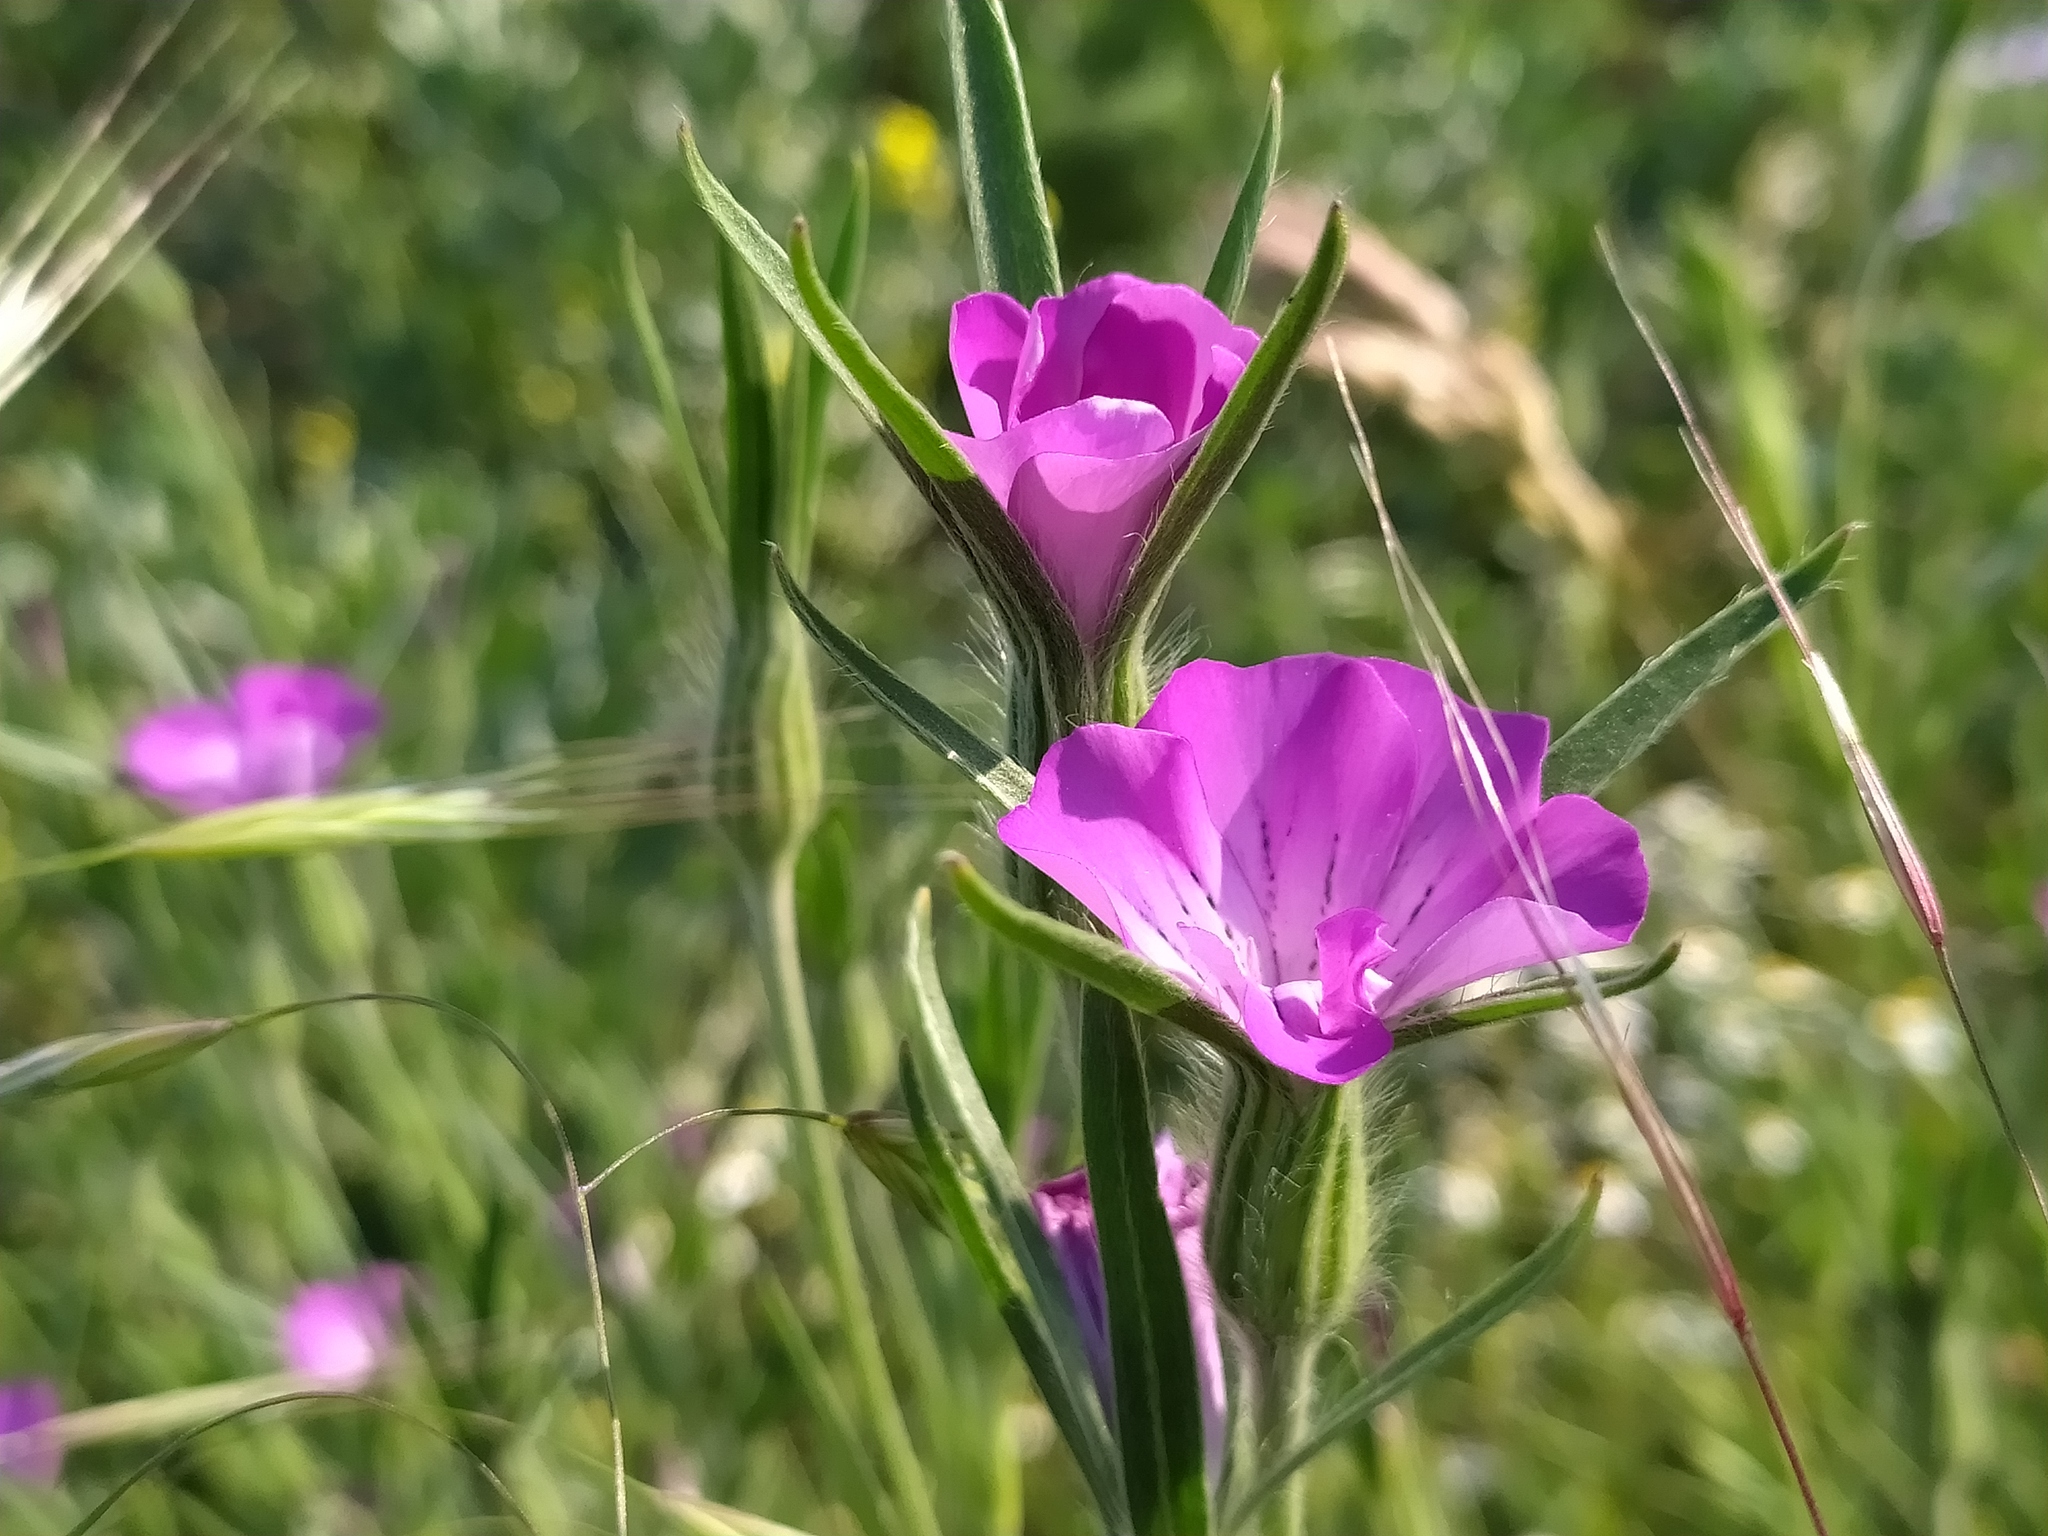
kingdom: Plantae
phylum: Tracheophyta
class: Magnoliopsida
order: Caryophyllales
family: Caryophyllaceae
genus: Agrostemma
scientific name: Agrostemma githago
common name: Common corncockle
